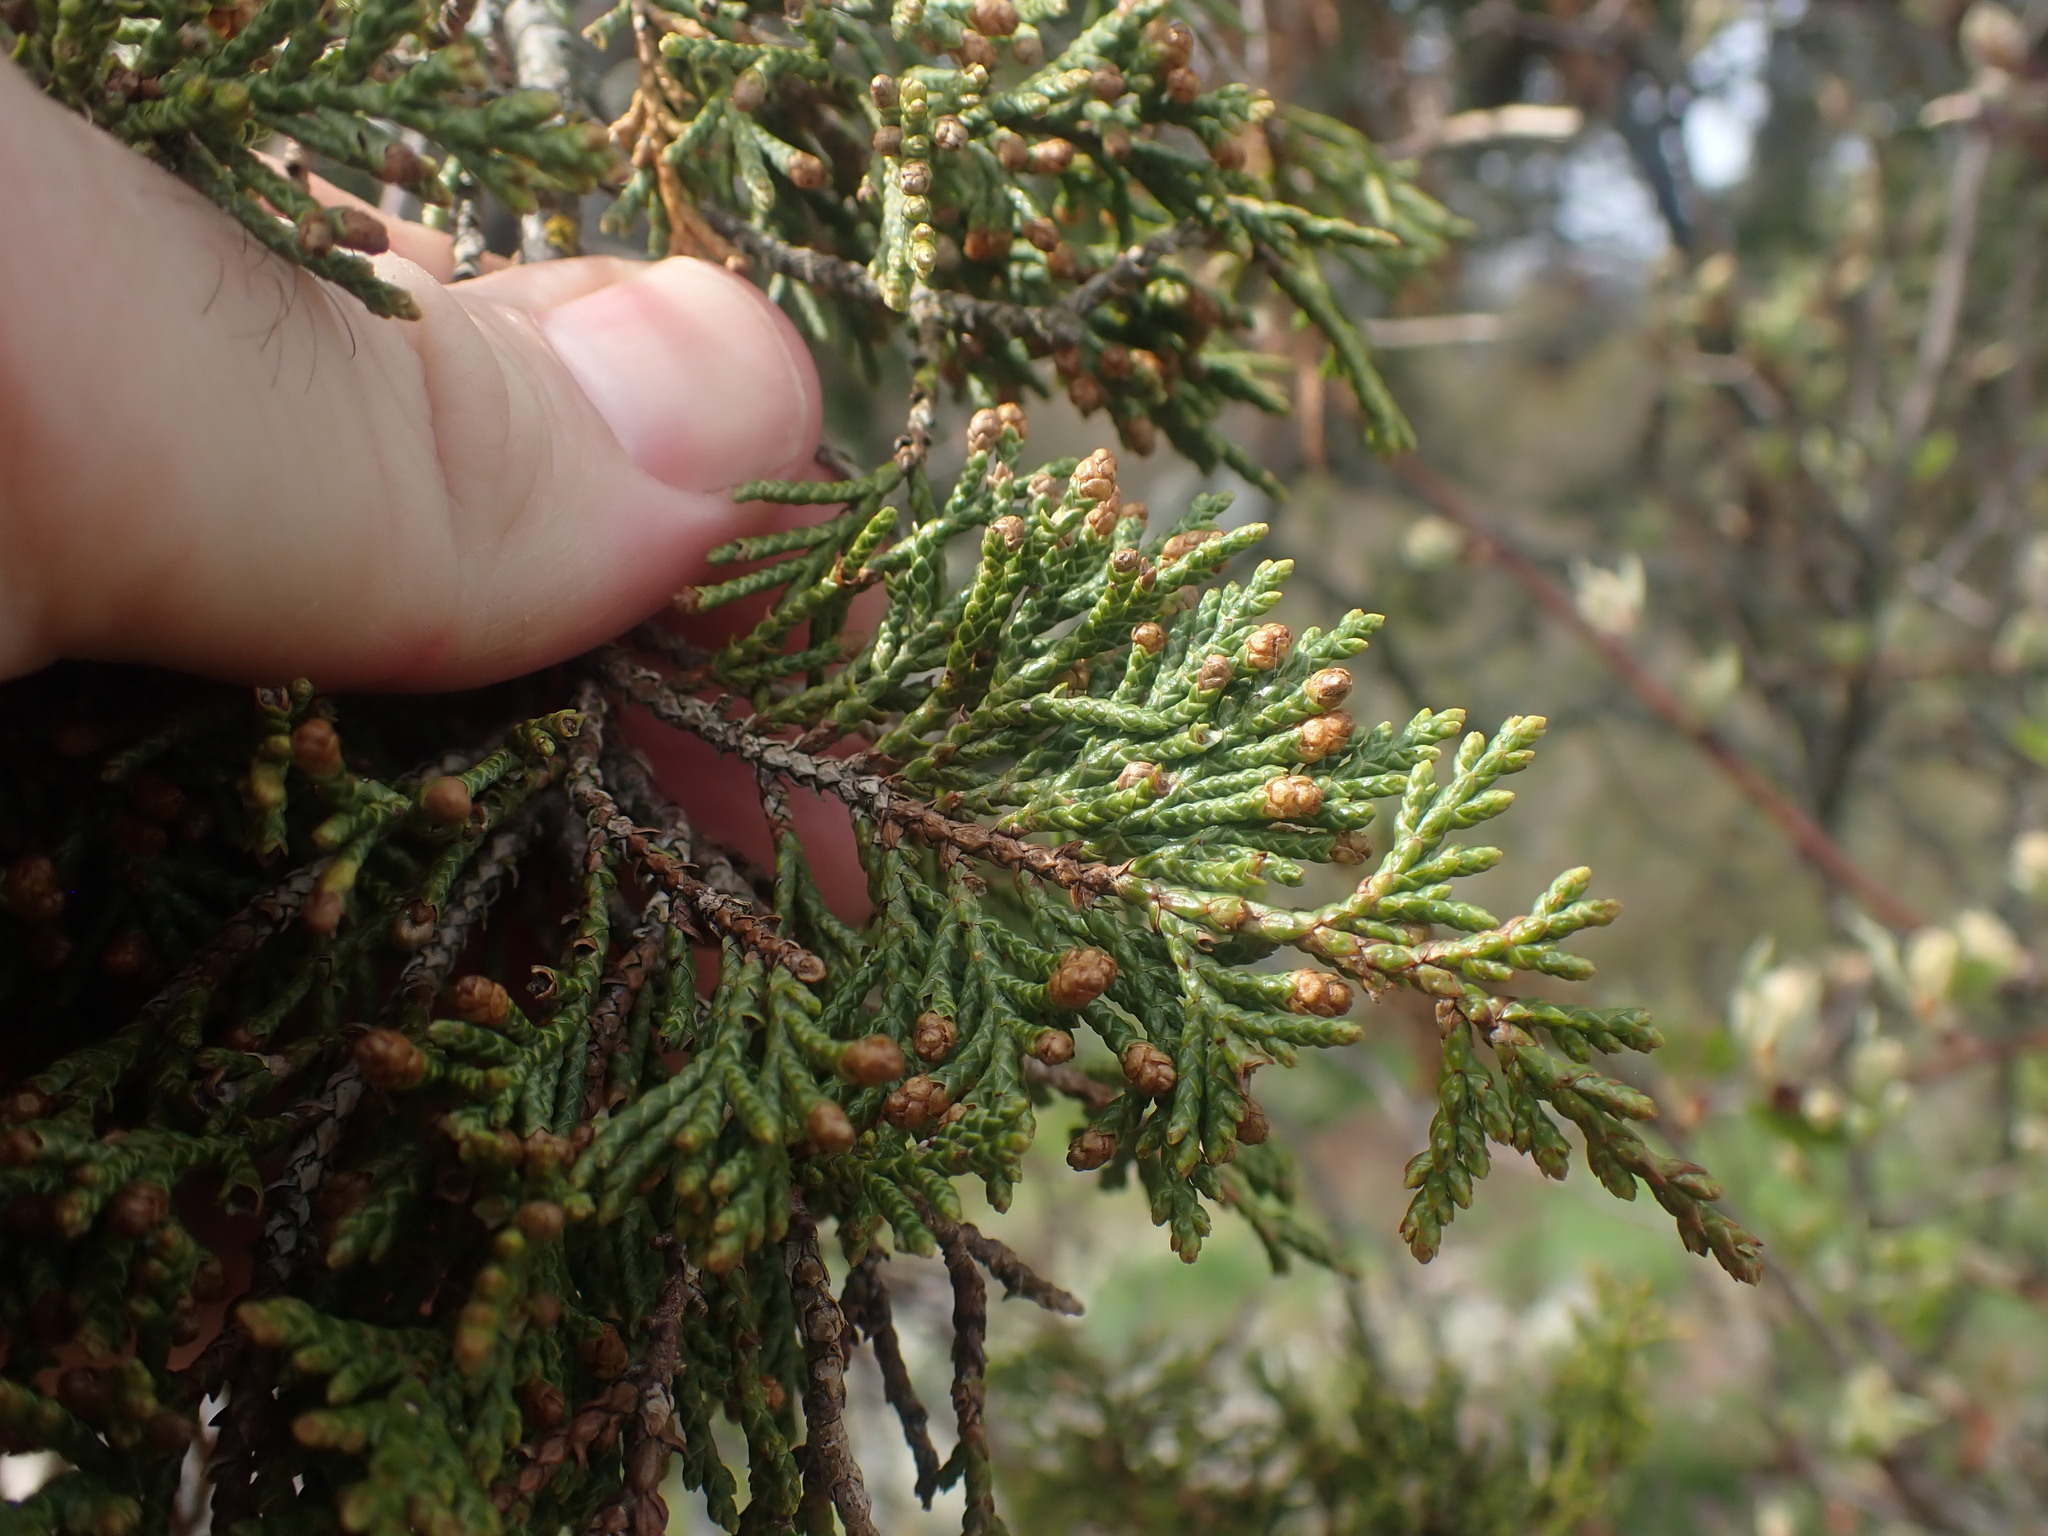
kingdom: Plantae
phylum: Tracheophyta
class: Pinopsida
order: Pinales
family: Cupressaceae
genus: Juniperus
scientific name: Juniperus scopulorum
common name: Rocky mountain juniper
